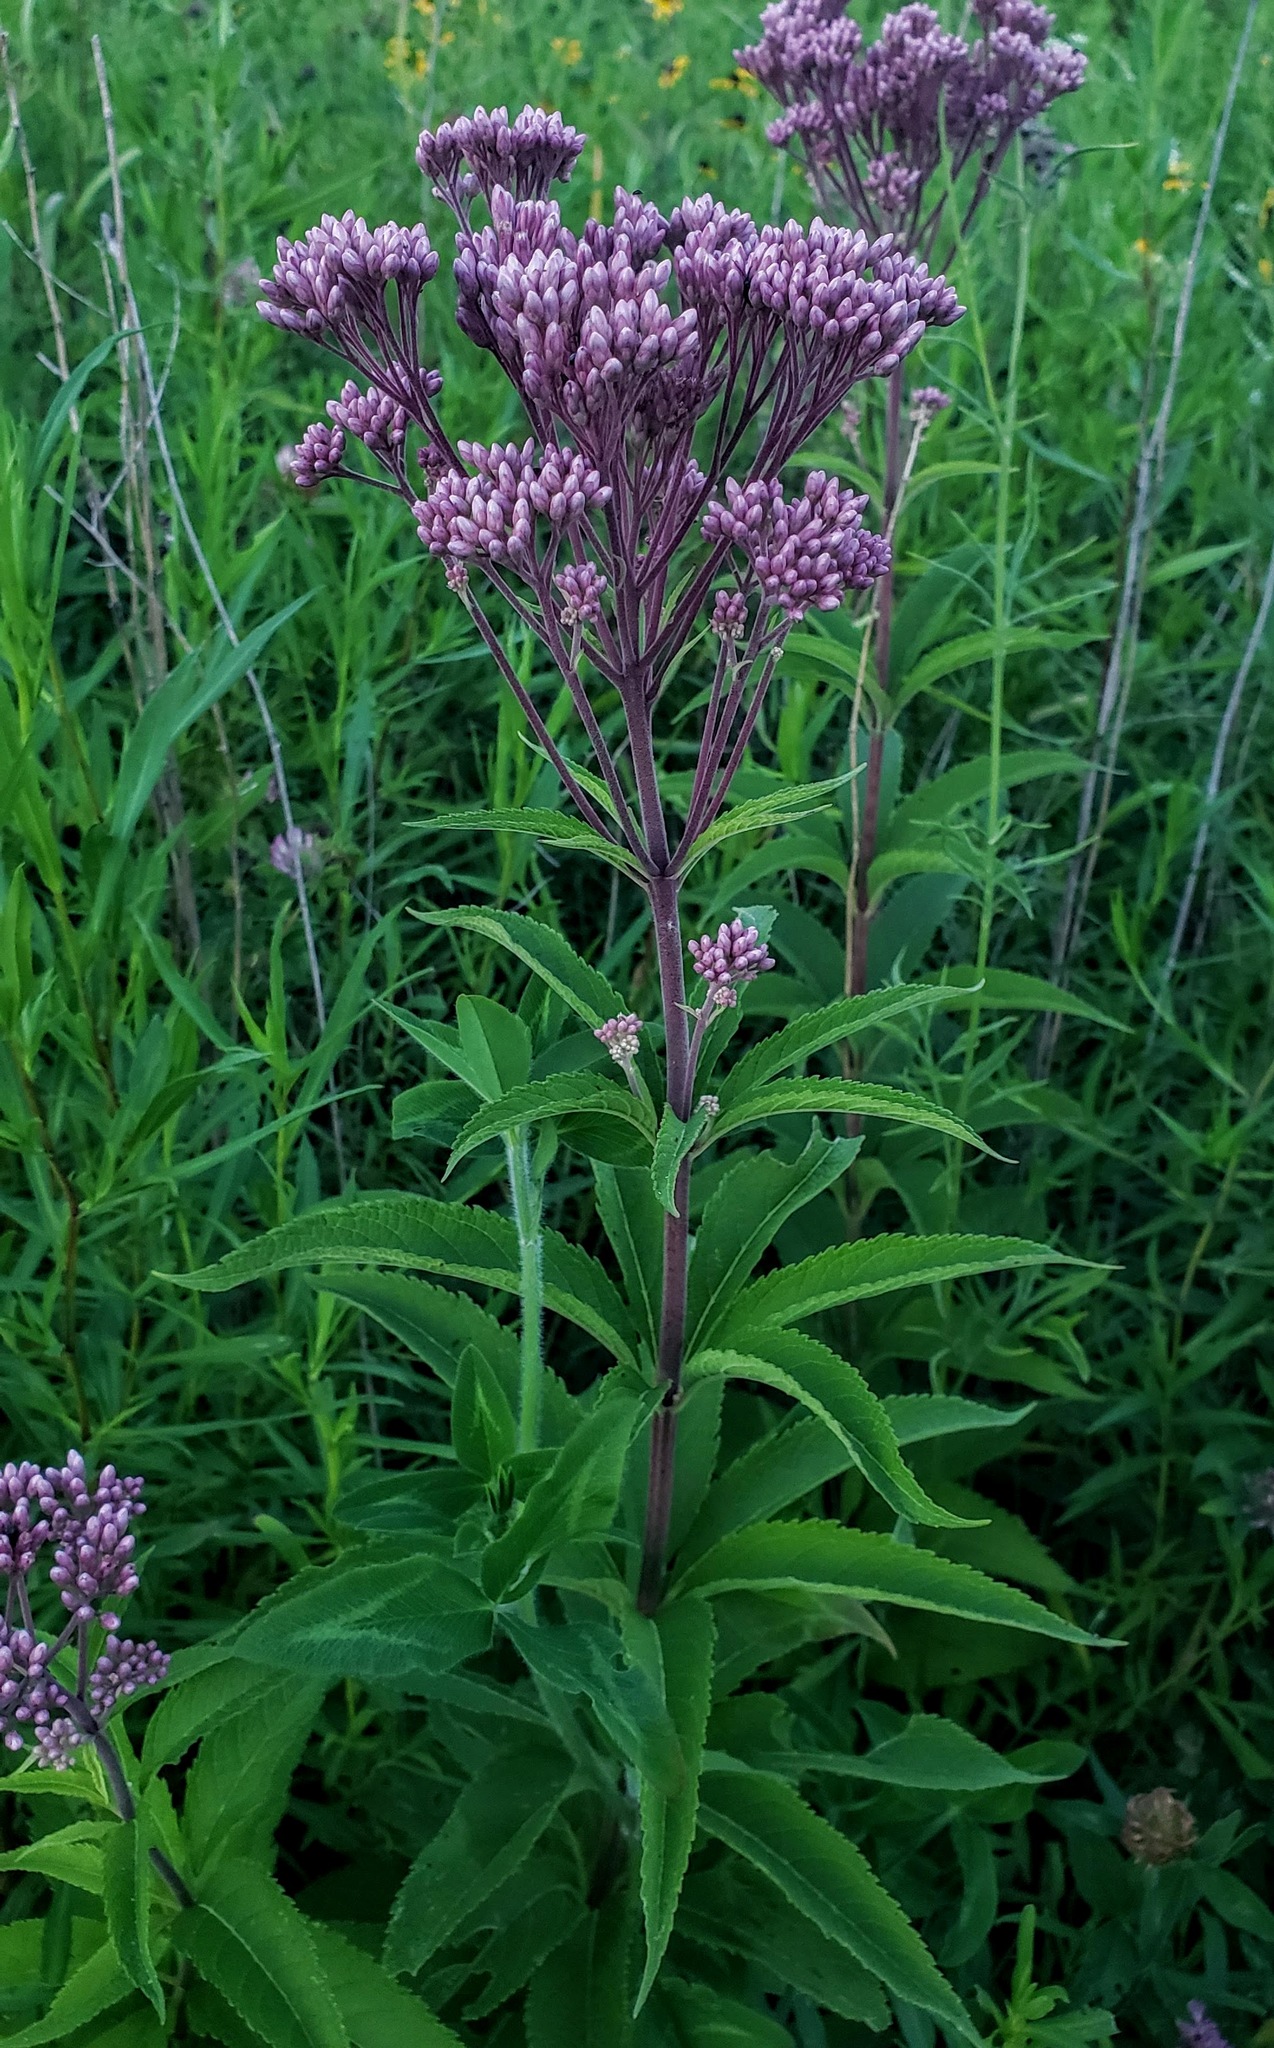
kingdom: Plantae
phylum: Tracheophyta
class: Magnoliopsida
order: Asterales
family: Asteraceae
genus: Eutrochium
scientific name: Eutrochium maculatum
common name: Spotted joe pye weed
